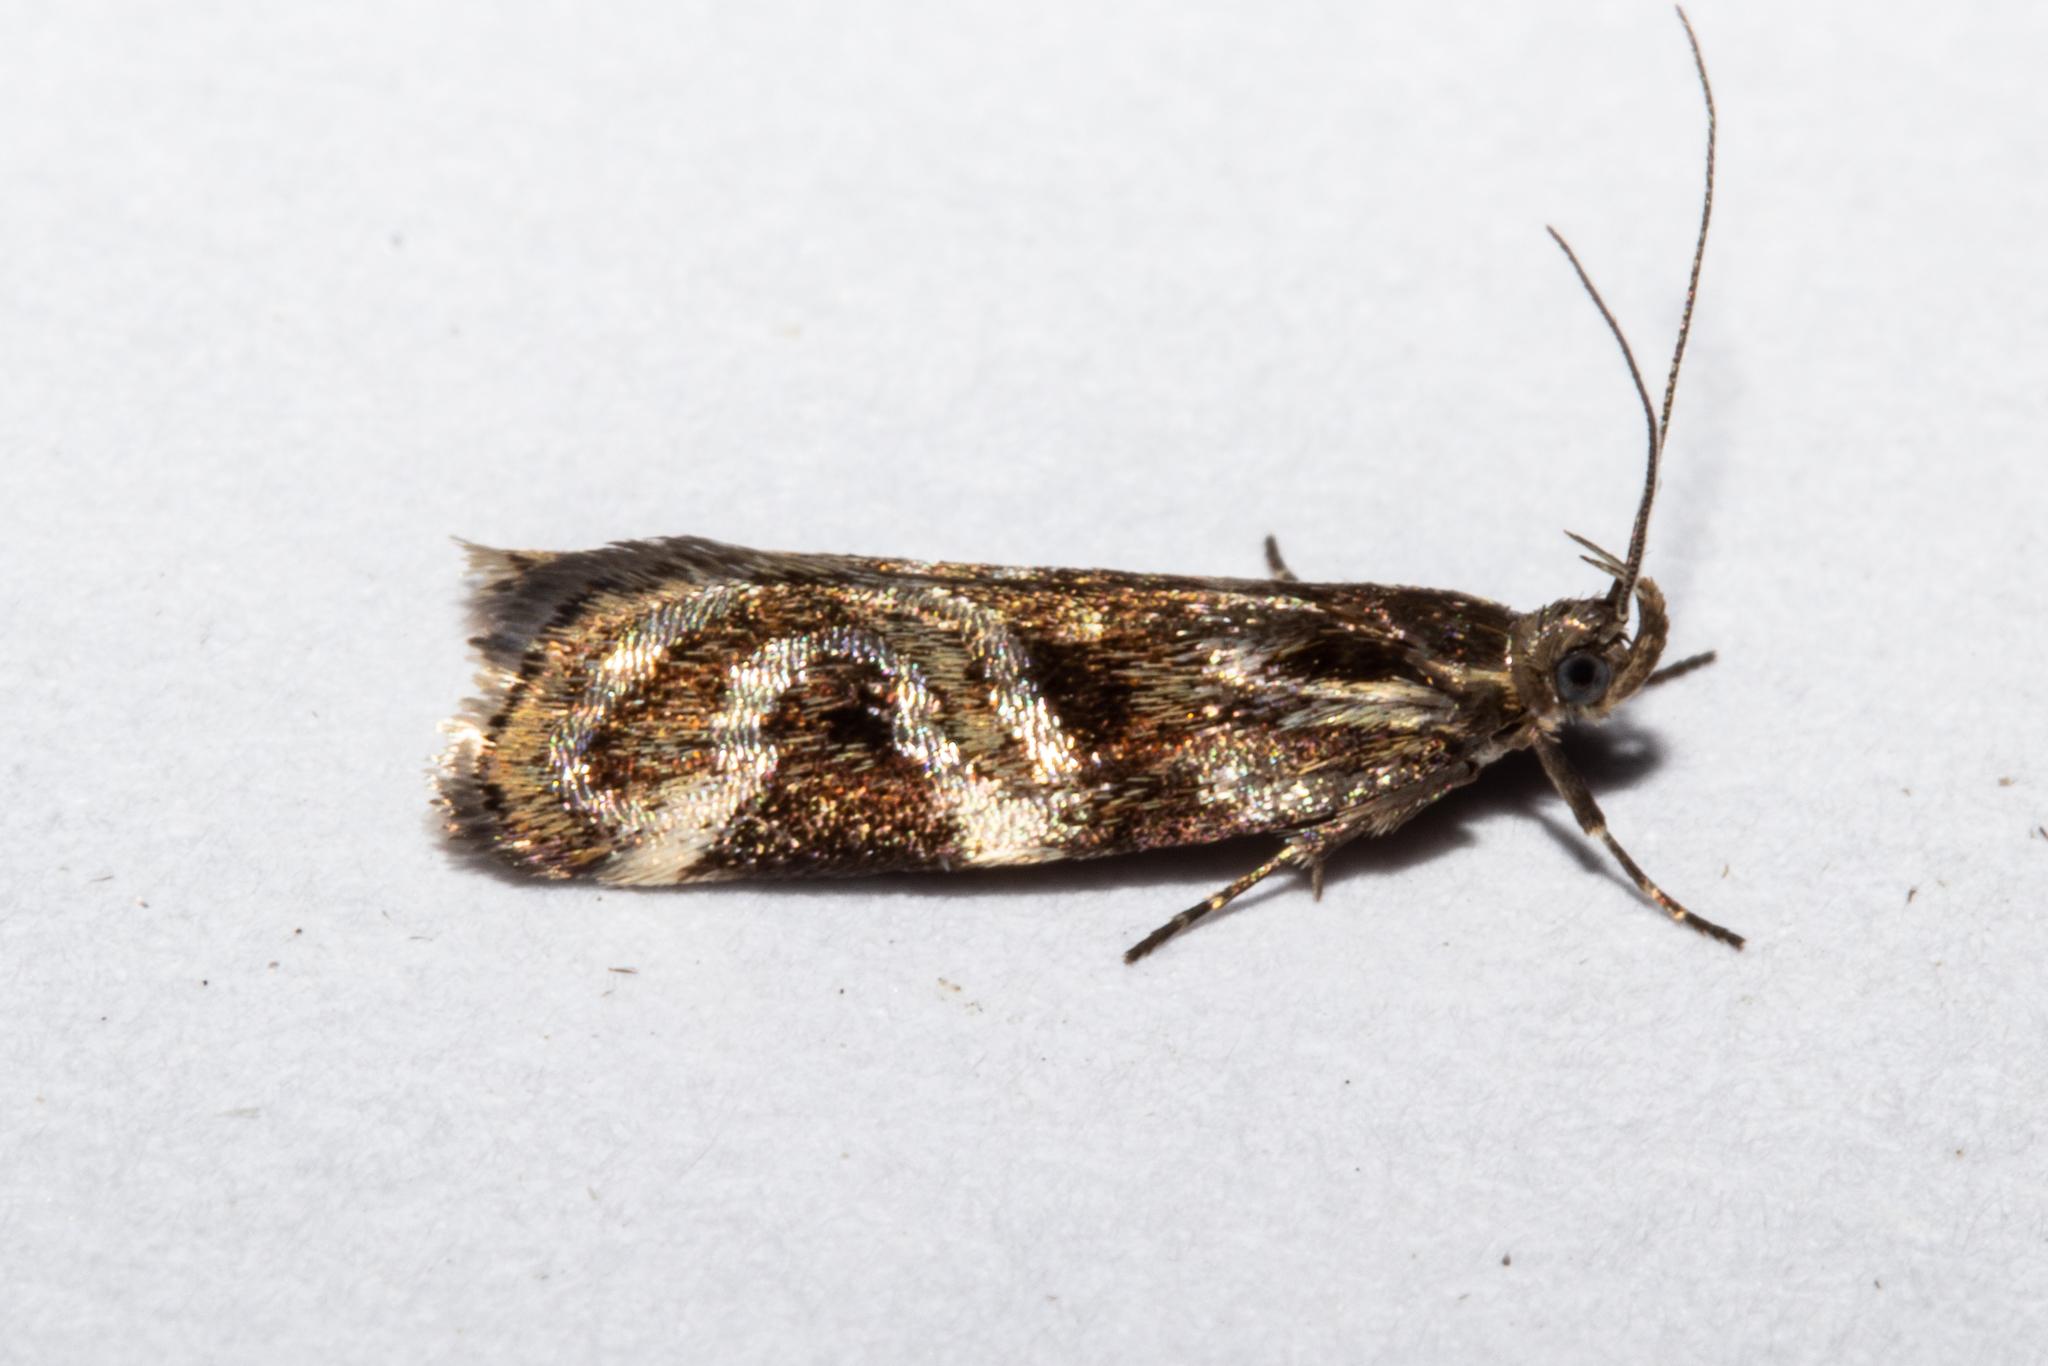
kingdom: Animalia
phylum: Arthropoda
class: Insecta
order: Lepidoptera
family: Oecophoridae
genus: Hierodoris
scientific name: Hierodoris s-fractum
